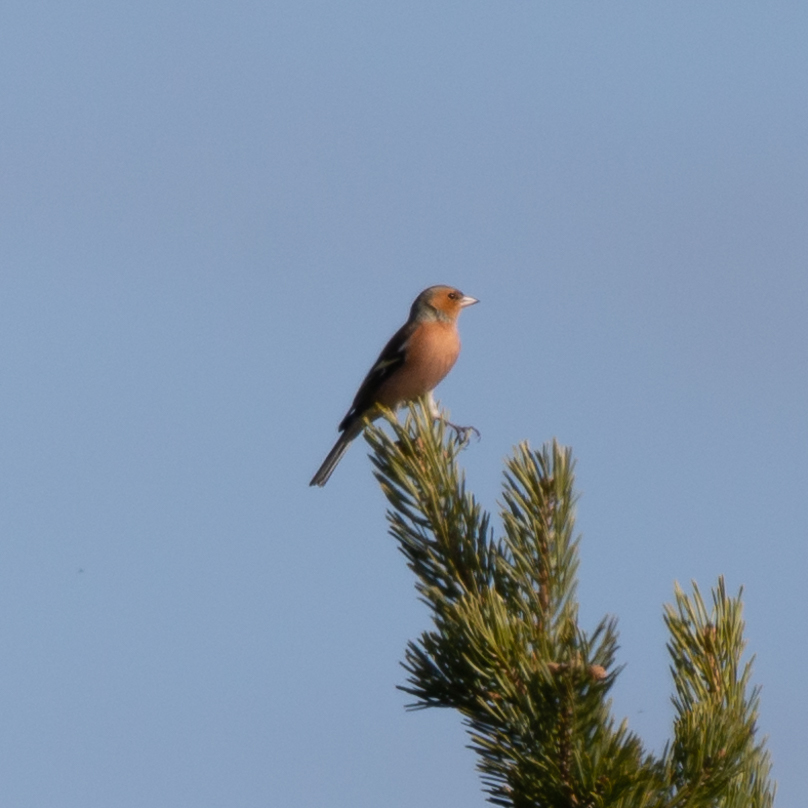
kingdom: Animalia
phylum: Chordata
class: Aves
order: Passeriformes
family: Fringillidae
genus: Fringilla
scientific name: Fringilla coelebs
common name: Common chaffinch
